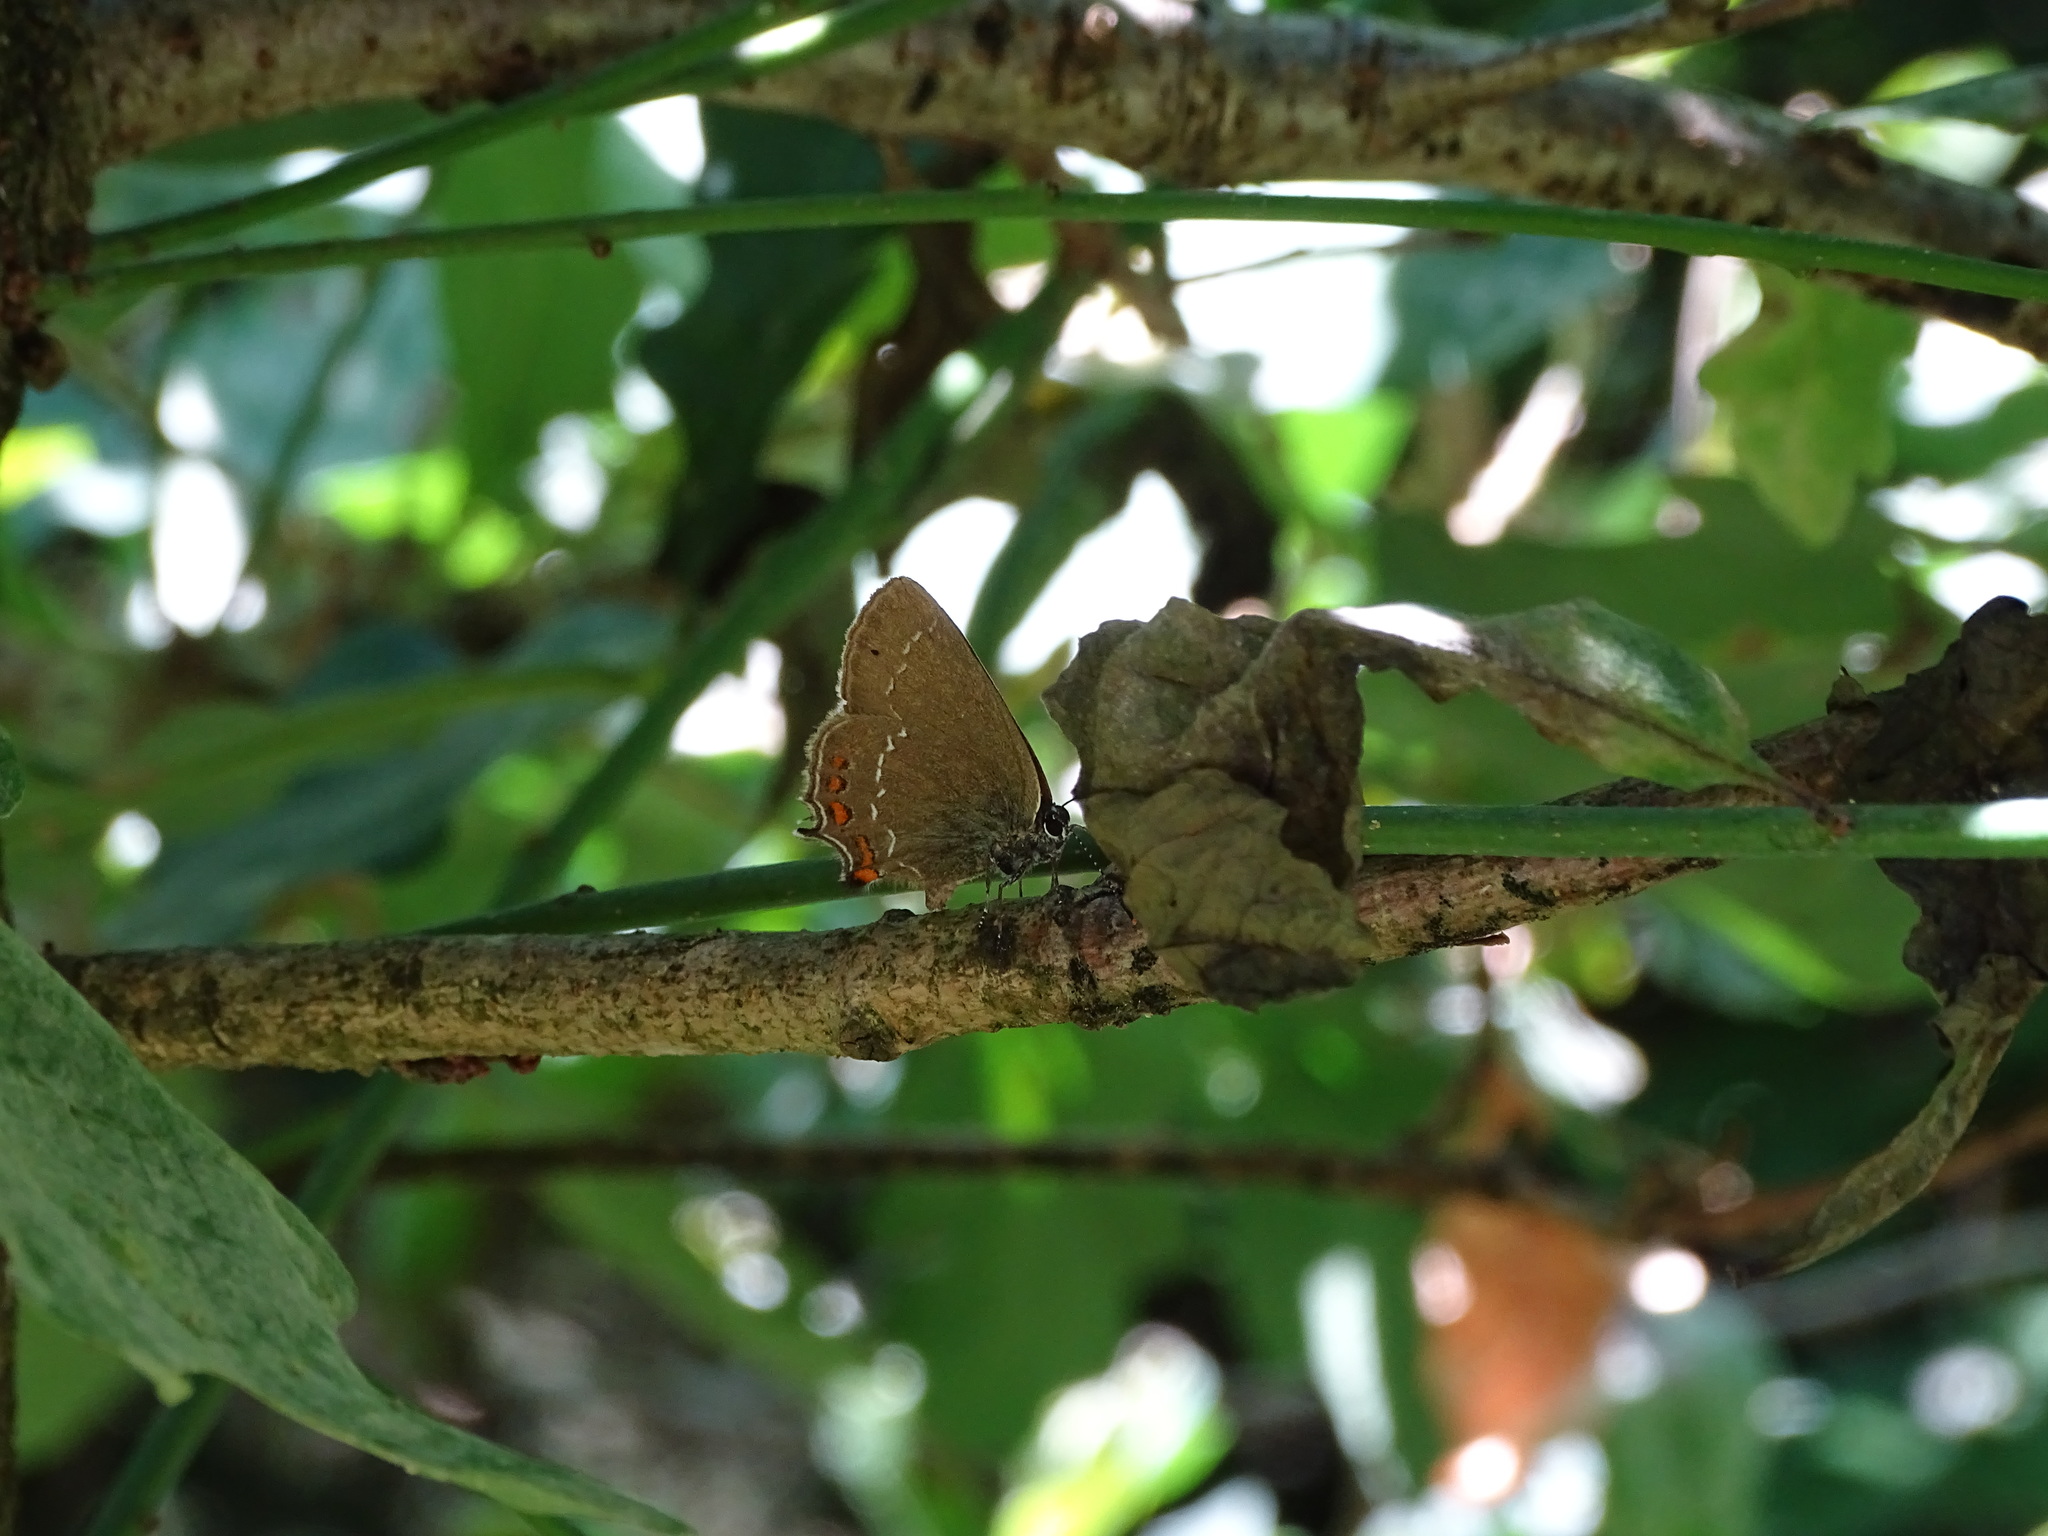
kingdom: Animalia
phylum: Arthropoda
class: Insecta
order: Lepidoptera
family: Lycaenidae
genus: Nordmannia
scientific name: Nordmannia ilicis
